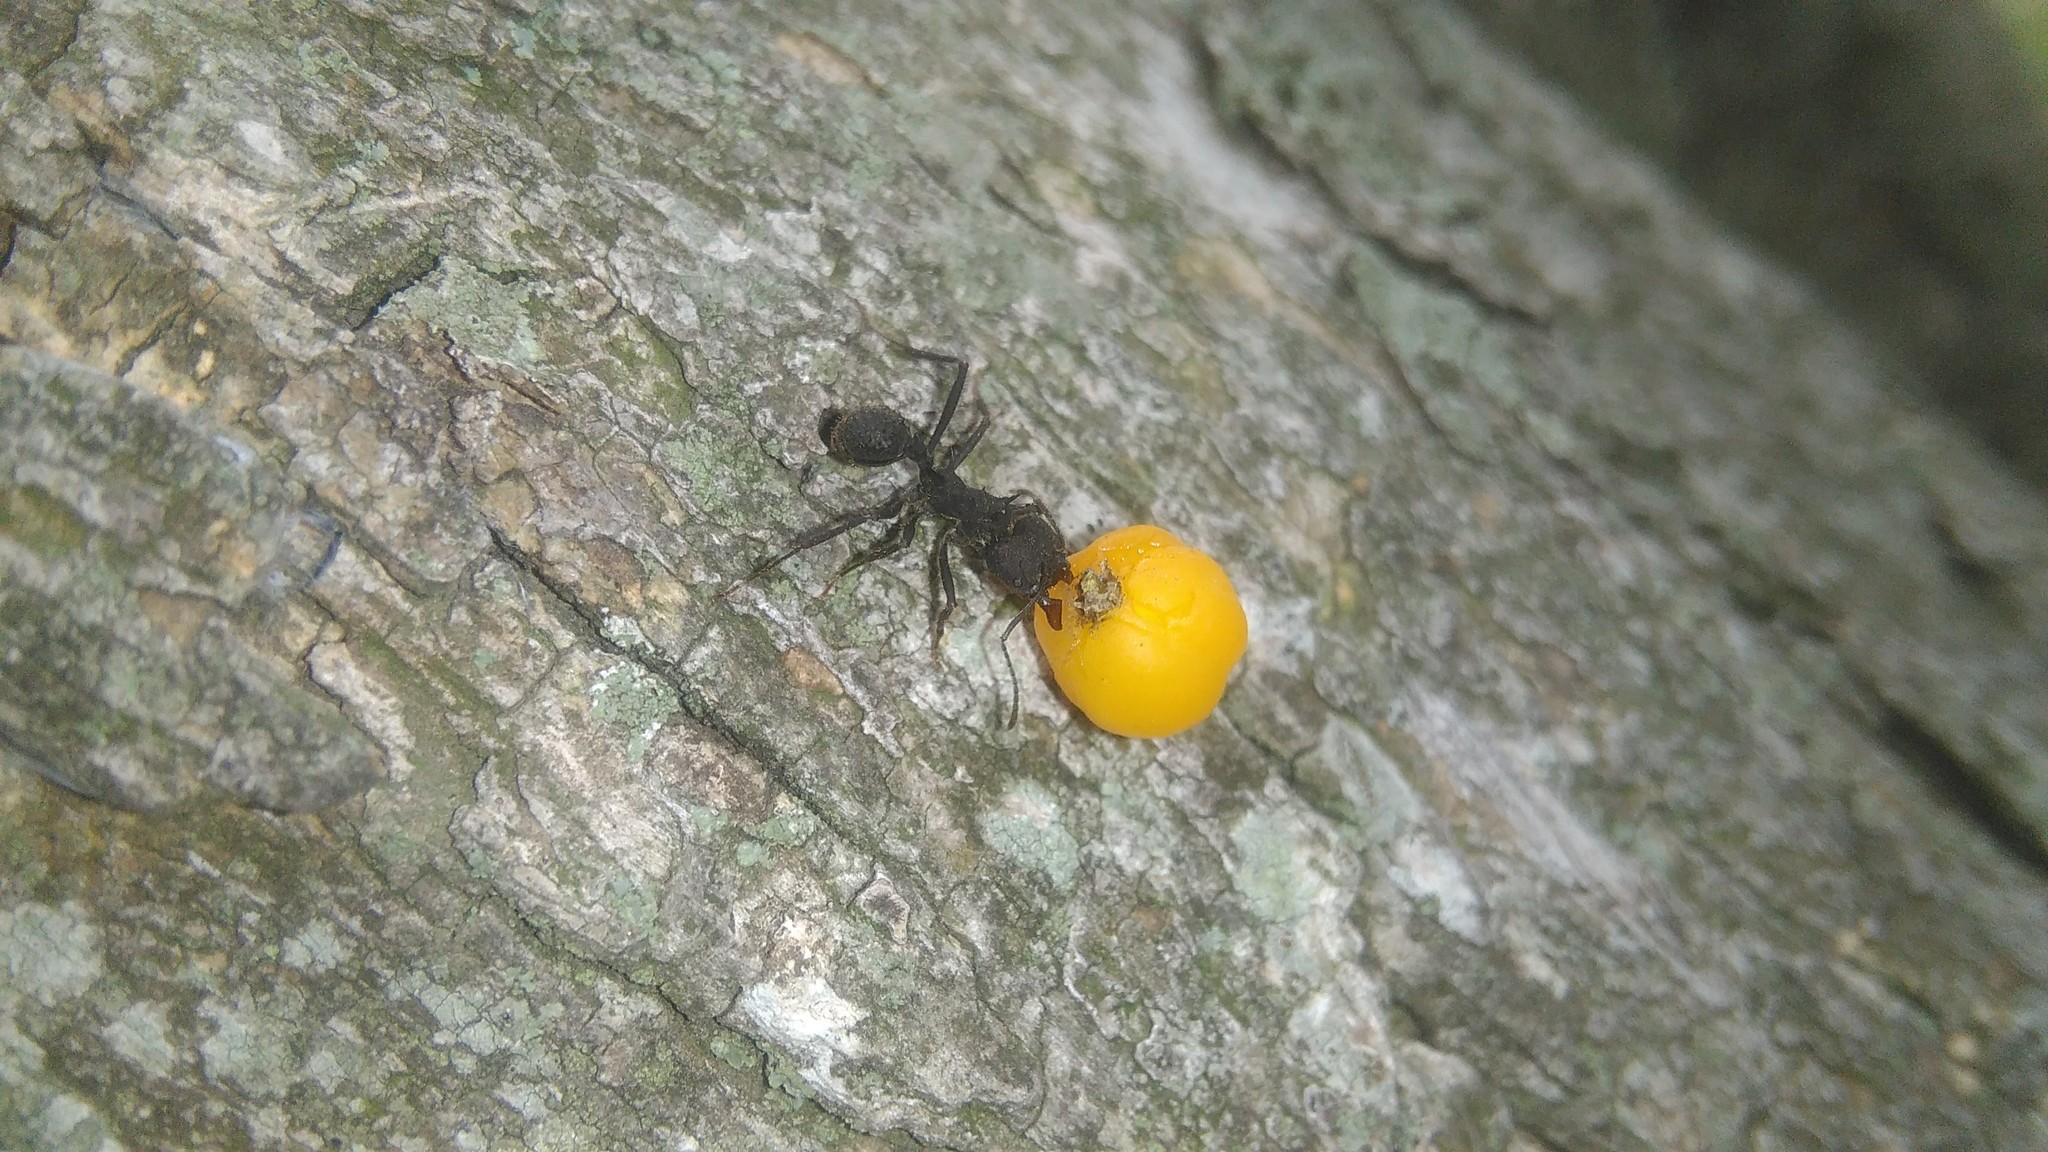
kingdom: Plantae
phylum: Tracheophyta
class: Magnoliopsida
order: Rosales
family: Cannabaceae
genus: Celtis
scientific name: Celtis tala
